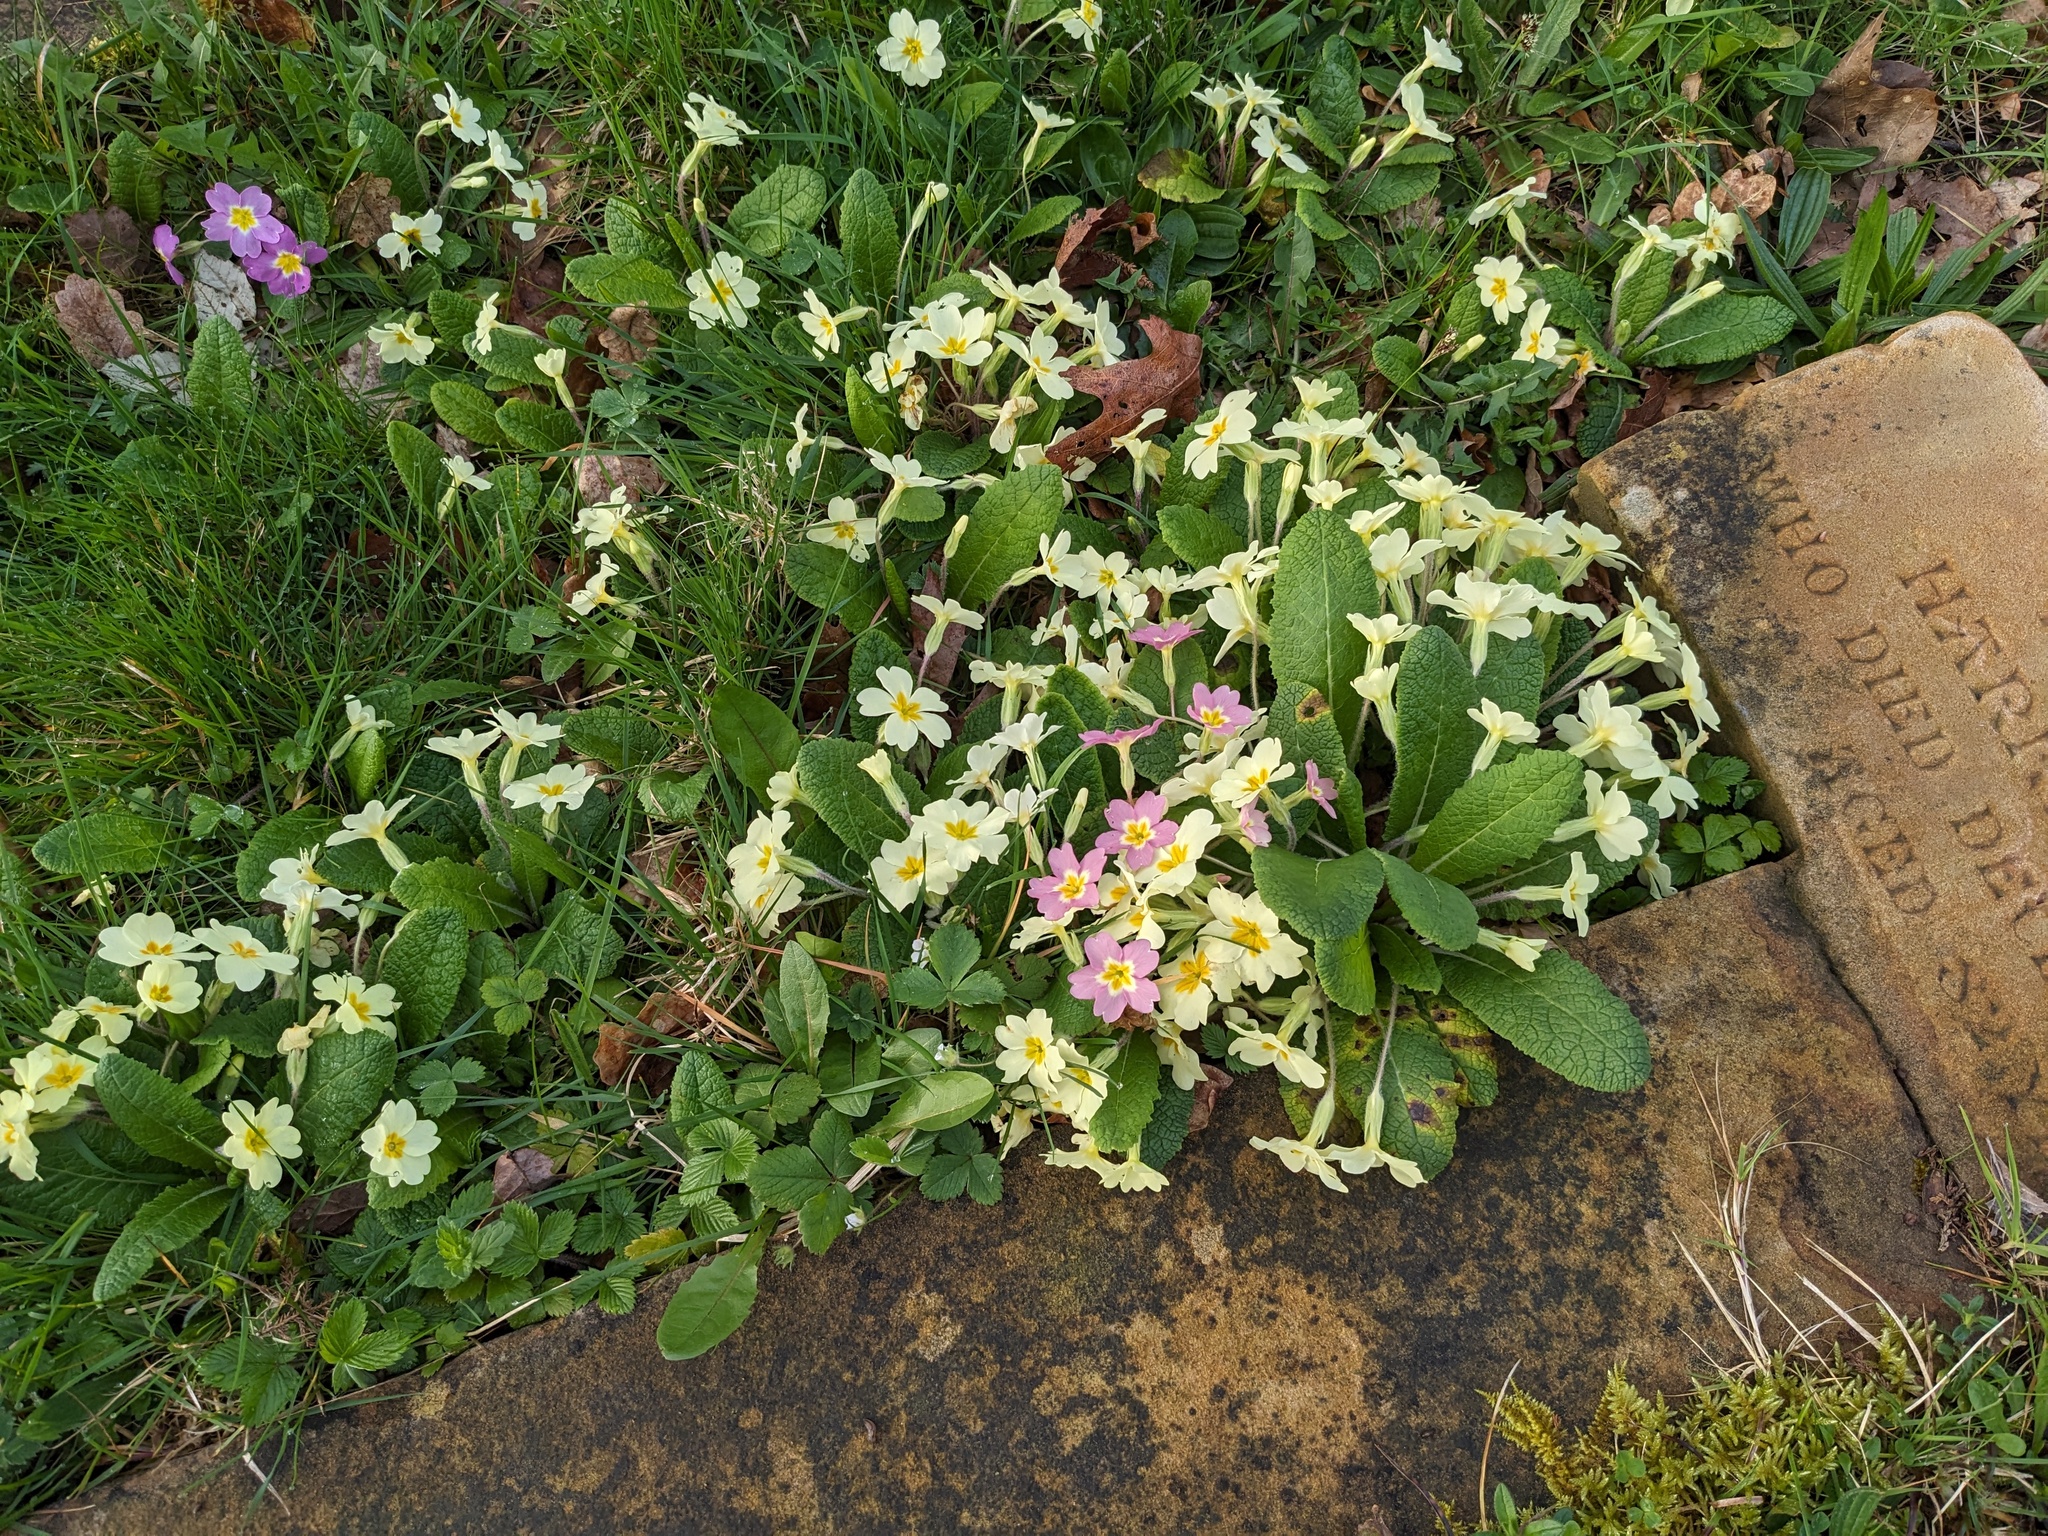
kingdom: Plantae
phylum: Tracheophyta
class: Magnoliopsida
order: Ericales
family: Primulaceae
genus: Primula
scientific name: Primula vulgaris
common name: Primrose
